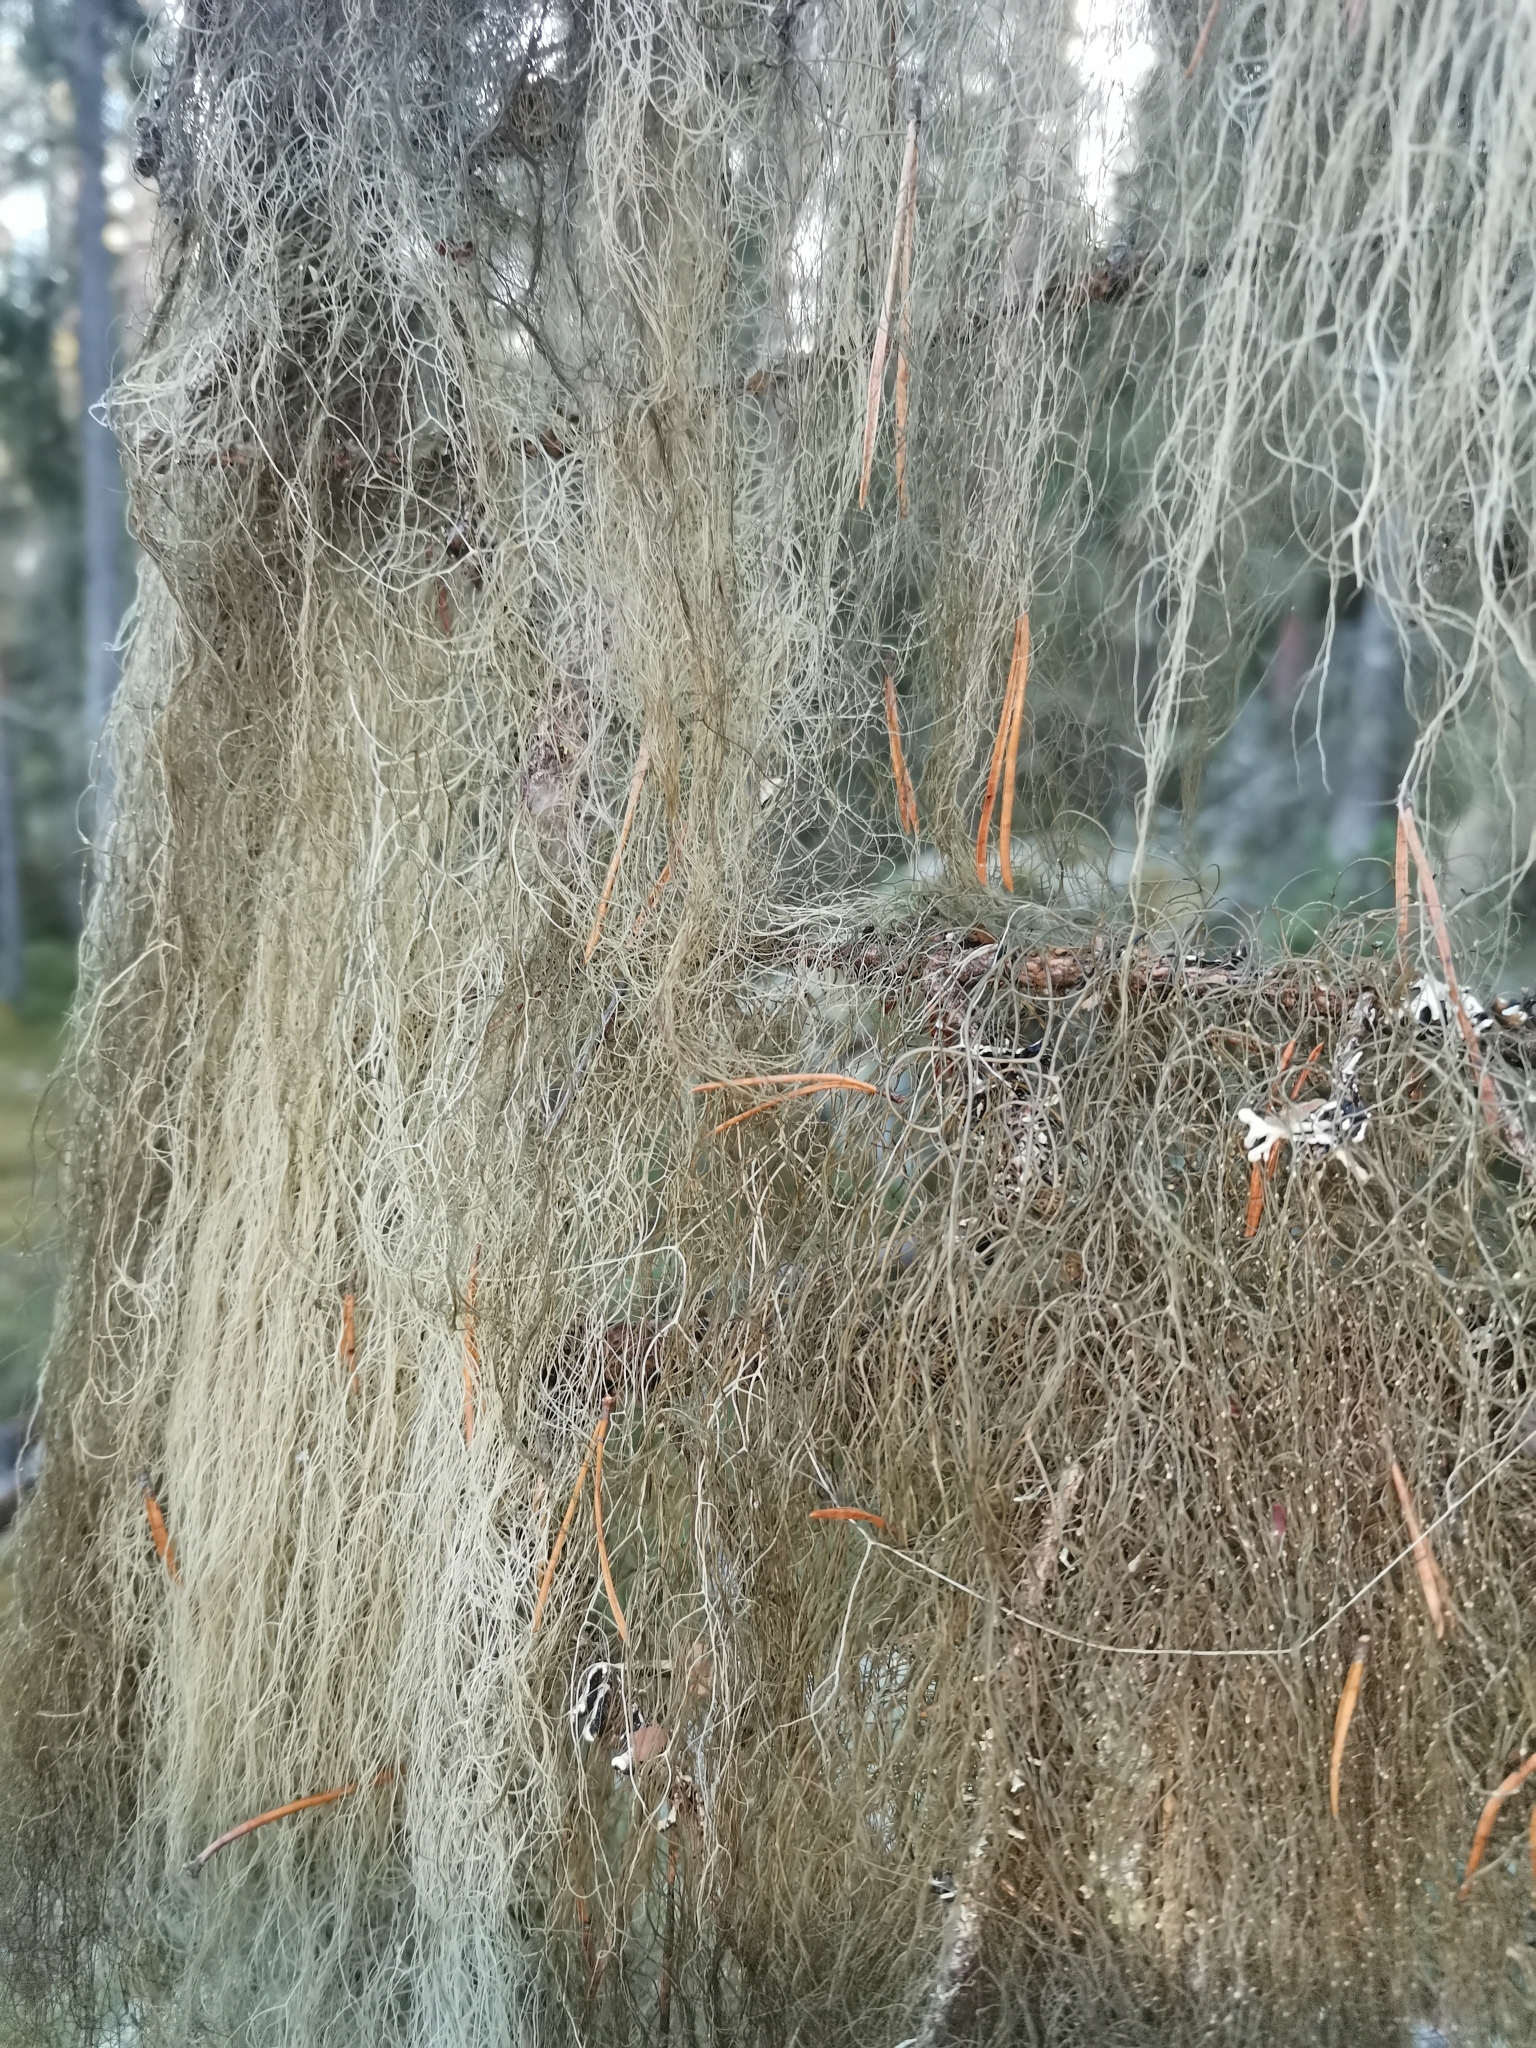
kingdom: Fungi
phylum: Ascomycota
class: Lecanoromycetes
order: Lecanorales
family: Parmeliaceae
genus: Bryoria
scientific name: Bryoria fuscescens
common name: Pale-footed horsehair lichen
